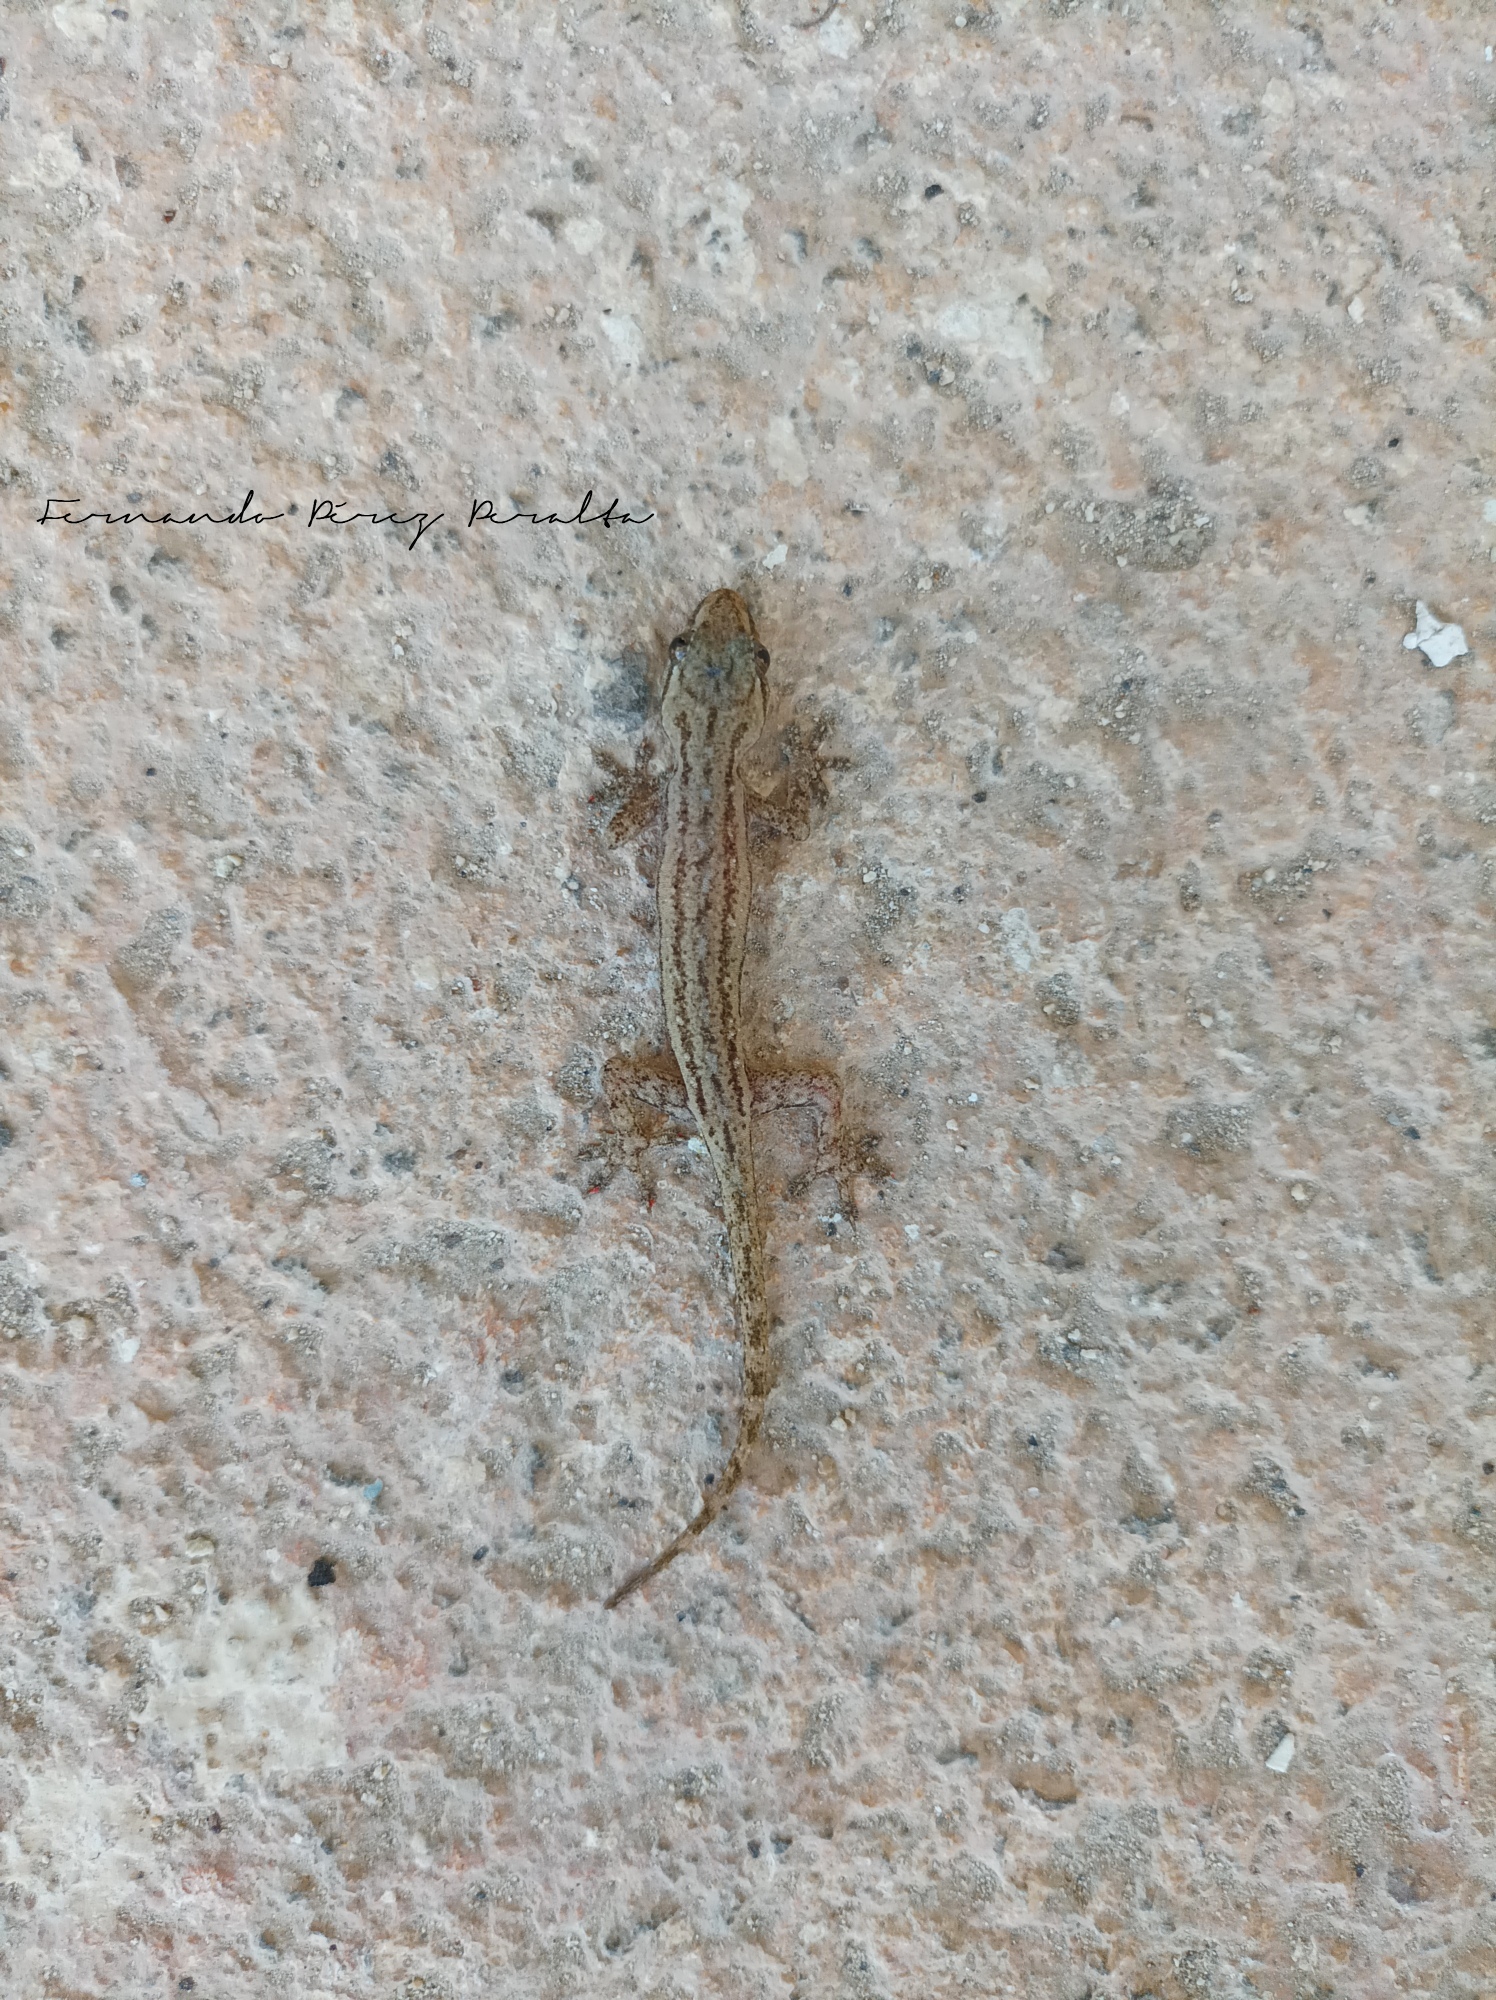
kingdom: Animalia
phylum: Chordata
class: Squamata
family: Gekkonidae
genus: Hemidactylus
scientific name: Hemidactylus frenatus
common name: Common house gecko
